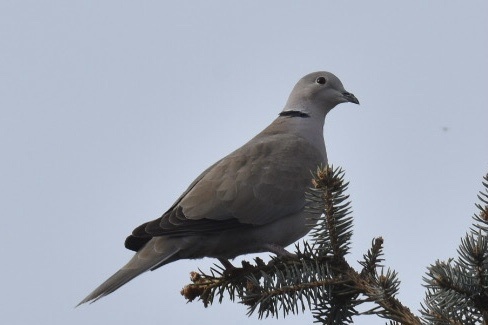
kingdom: Animalia
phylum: Chordata
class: Aves
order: Columbiformes
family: Columbidae
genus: Streptopelia
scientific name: Streptopelia decaocto
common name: Eurasian collared dove
